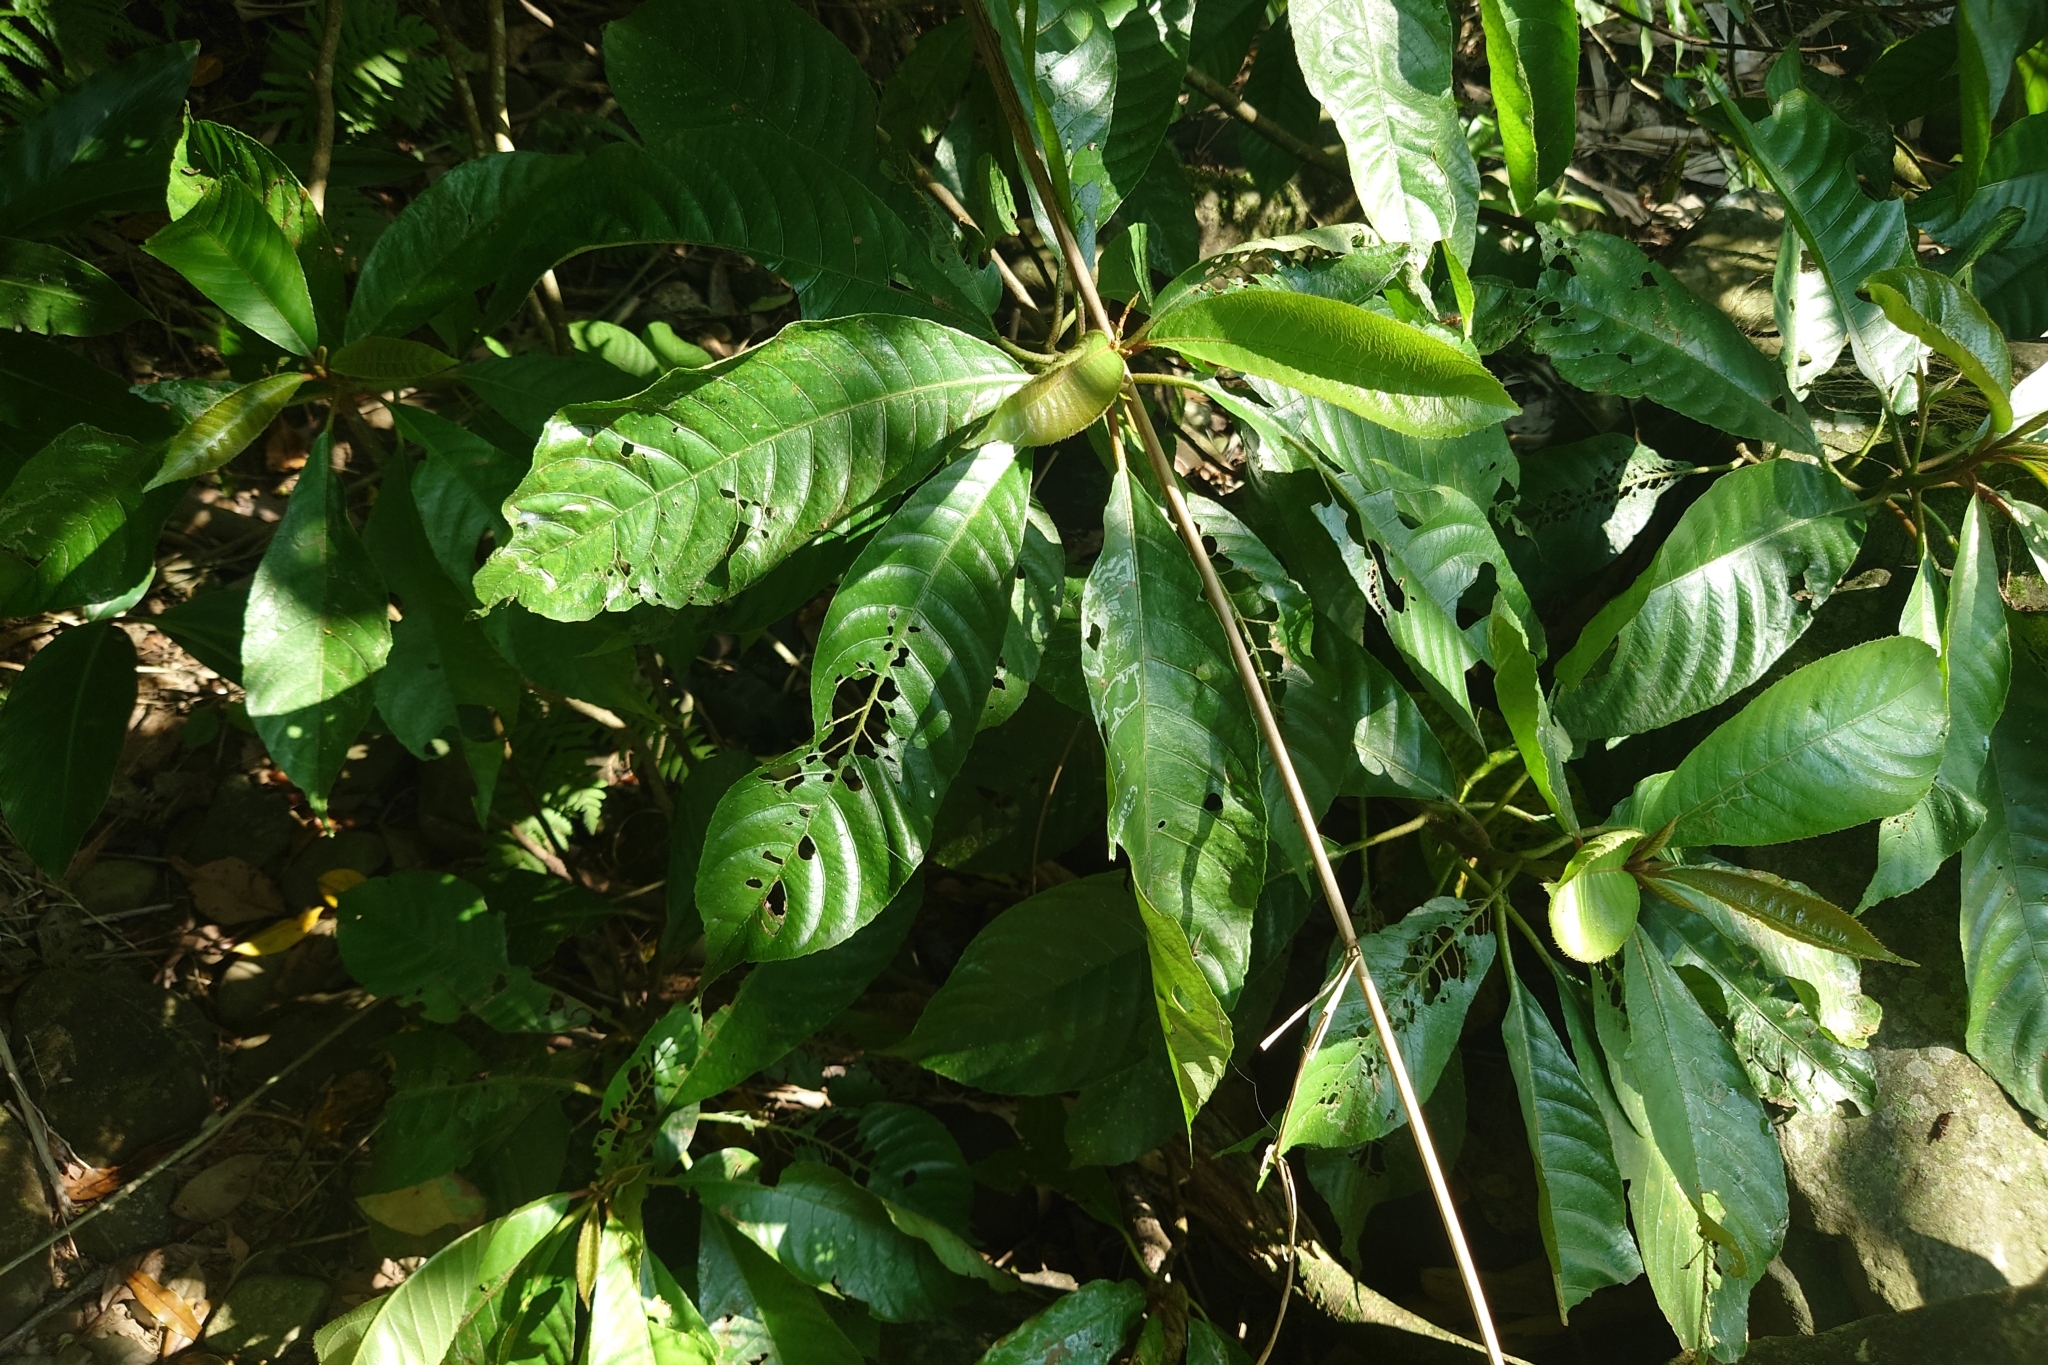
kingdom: Plantae
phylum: Tracheophyta
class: Magnoliopsida
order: Ericales
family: Actinidiaceae
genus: Saurauia
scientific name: Saurauia tristyla
